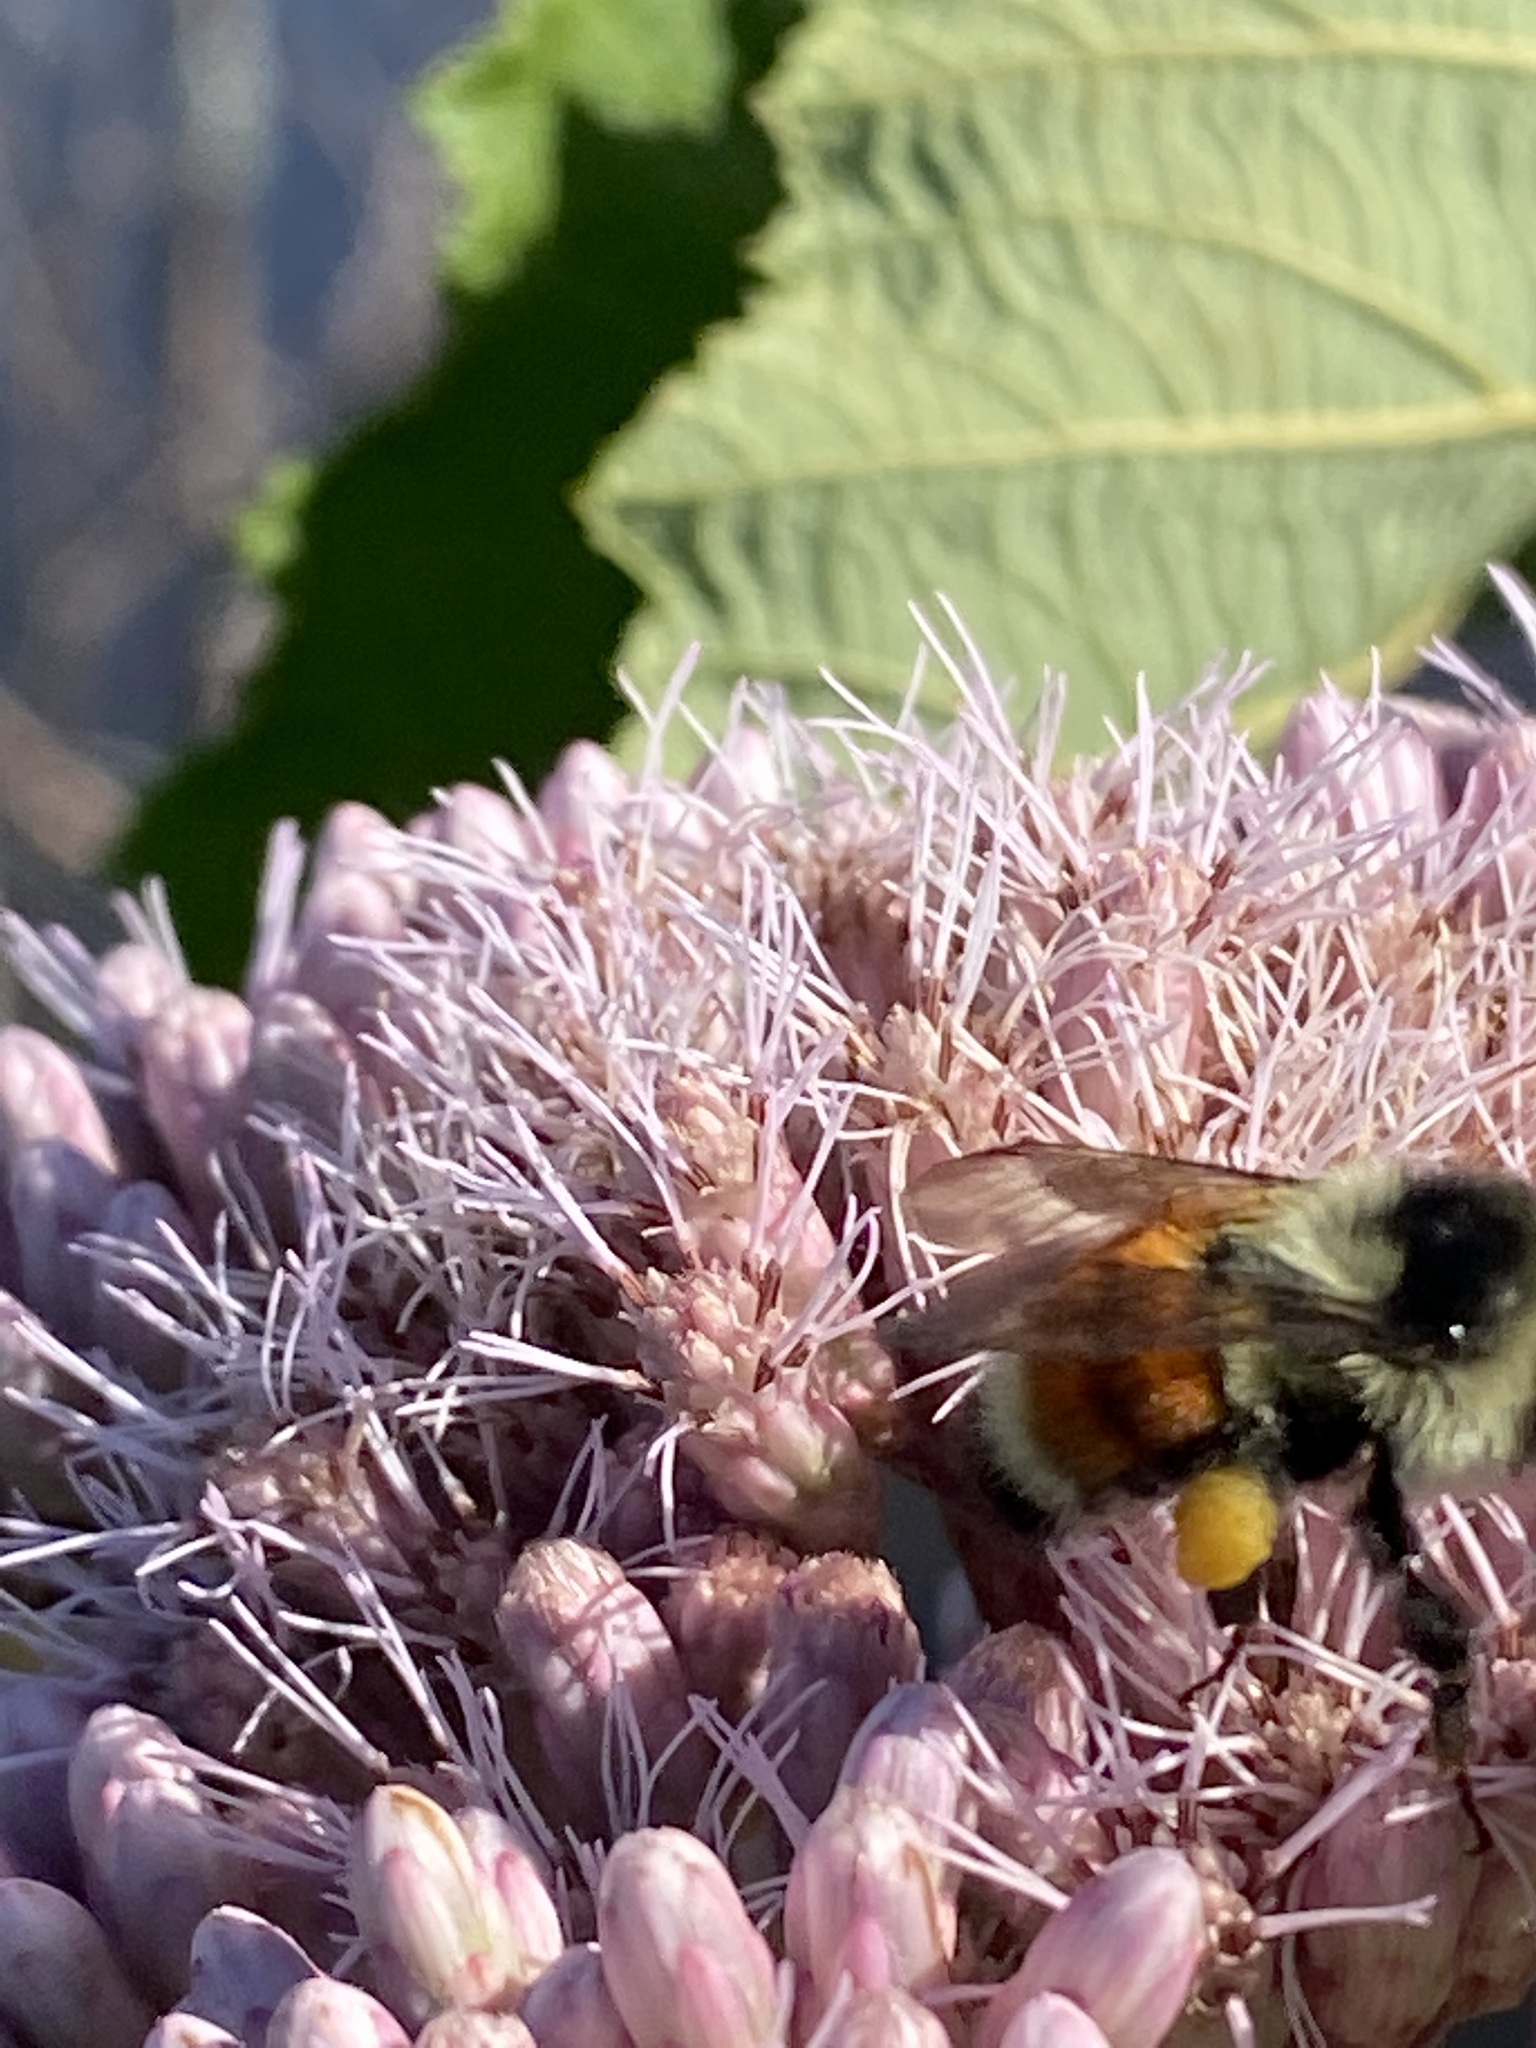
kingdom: Animalia
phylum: Arthropoda
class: Insecta
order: Hymenoptera
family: Apidae
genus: Bombus
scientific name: Bombus ternarius
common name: Tri-colored bumble bee
